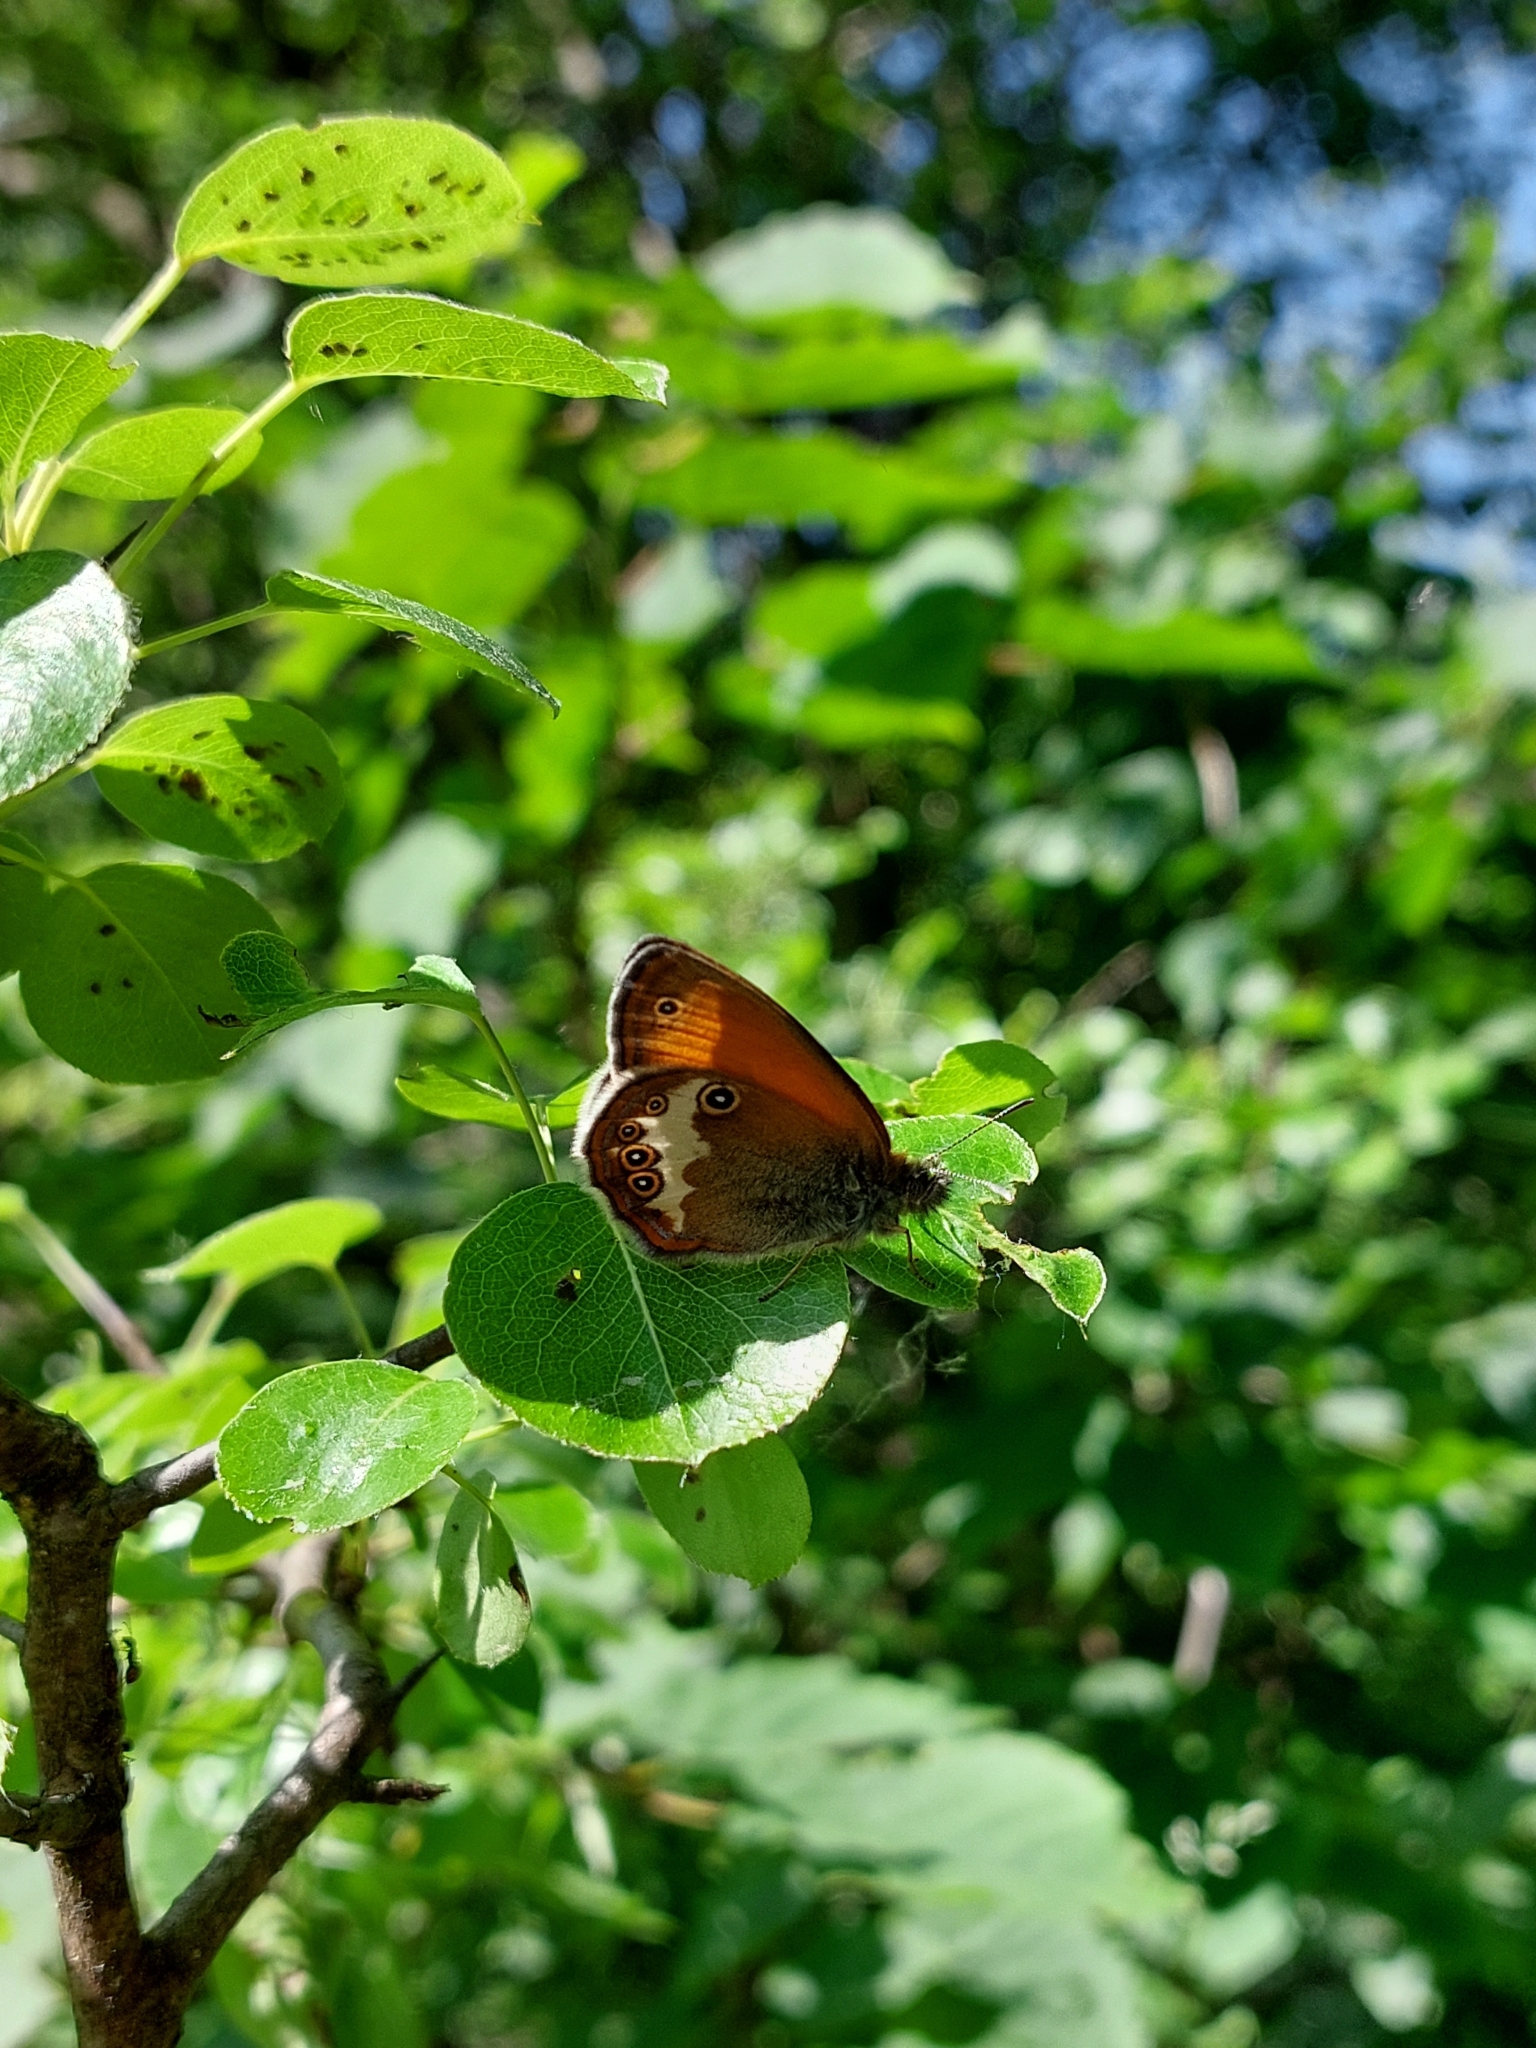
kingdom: Animalia
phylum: Arthropoda
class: Insecta
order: Lepidoptera
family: Nymphalidae
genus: Coenonympha
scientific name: Coenonympha arcania
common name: Pearly heath
